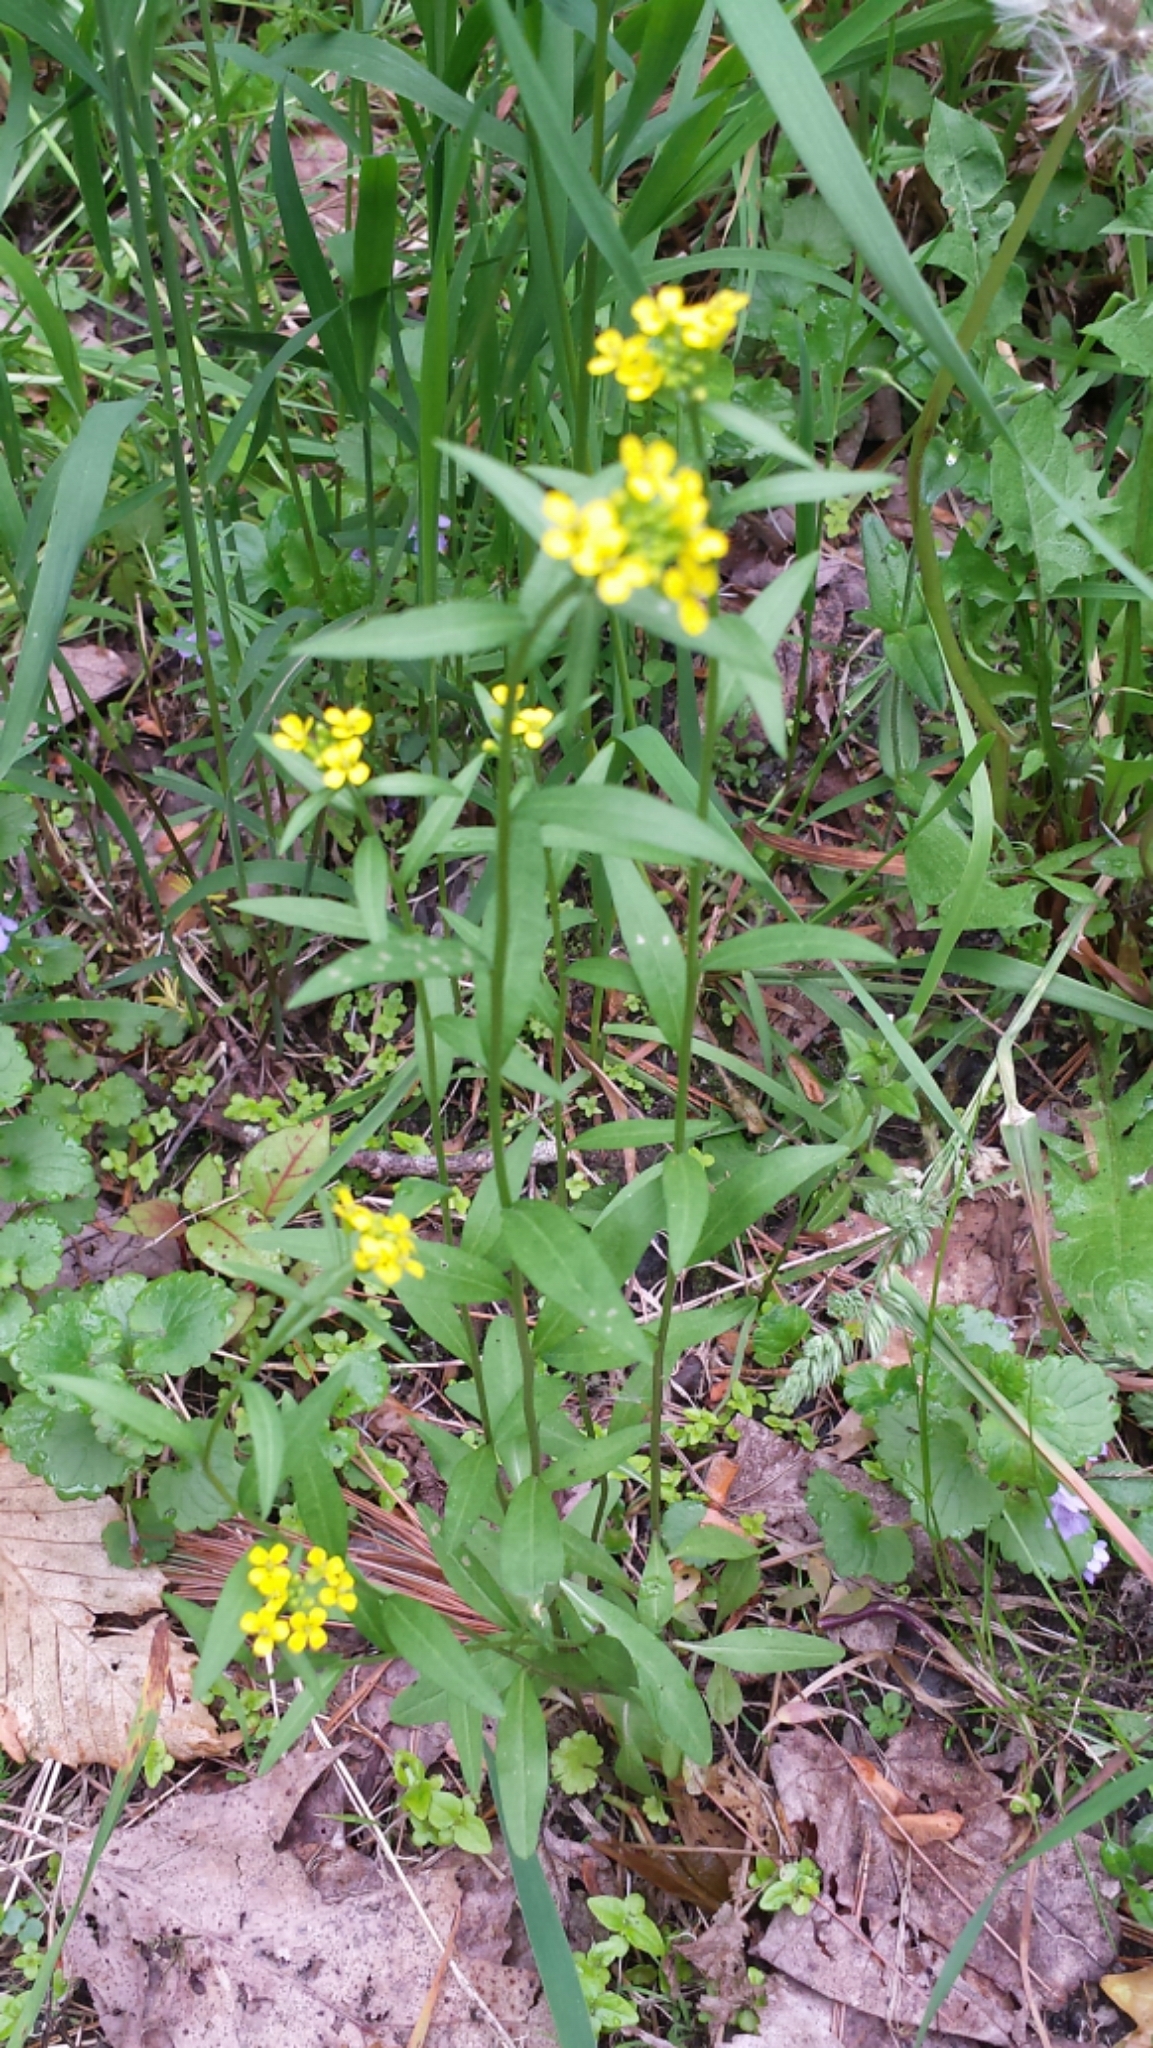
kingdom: Plantae
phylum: Tracheophyta
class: Magnoliopsida
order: Brassicales
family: Brassicaceae
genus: Erysimum
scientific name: Erysimum cheiranthoides
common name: Treacle mustard
